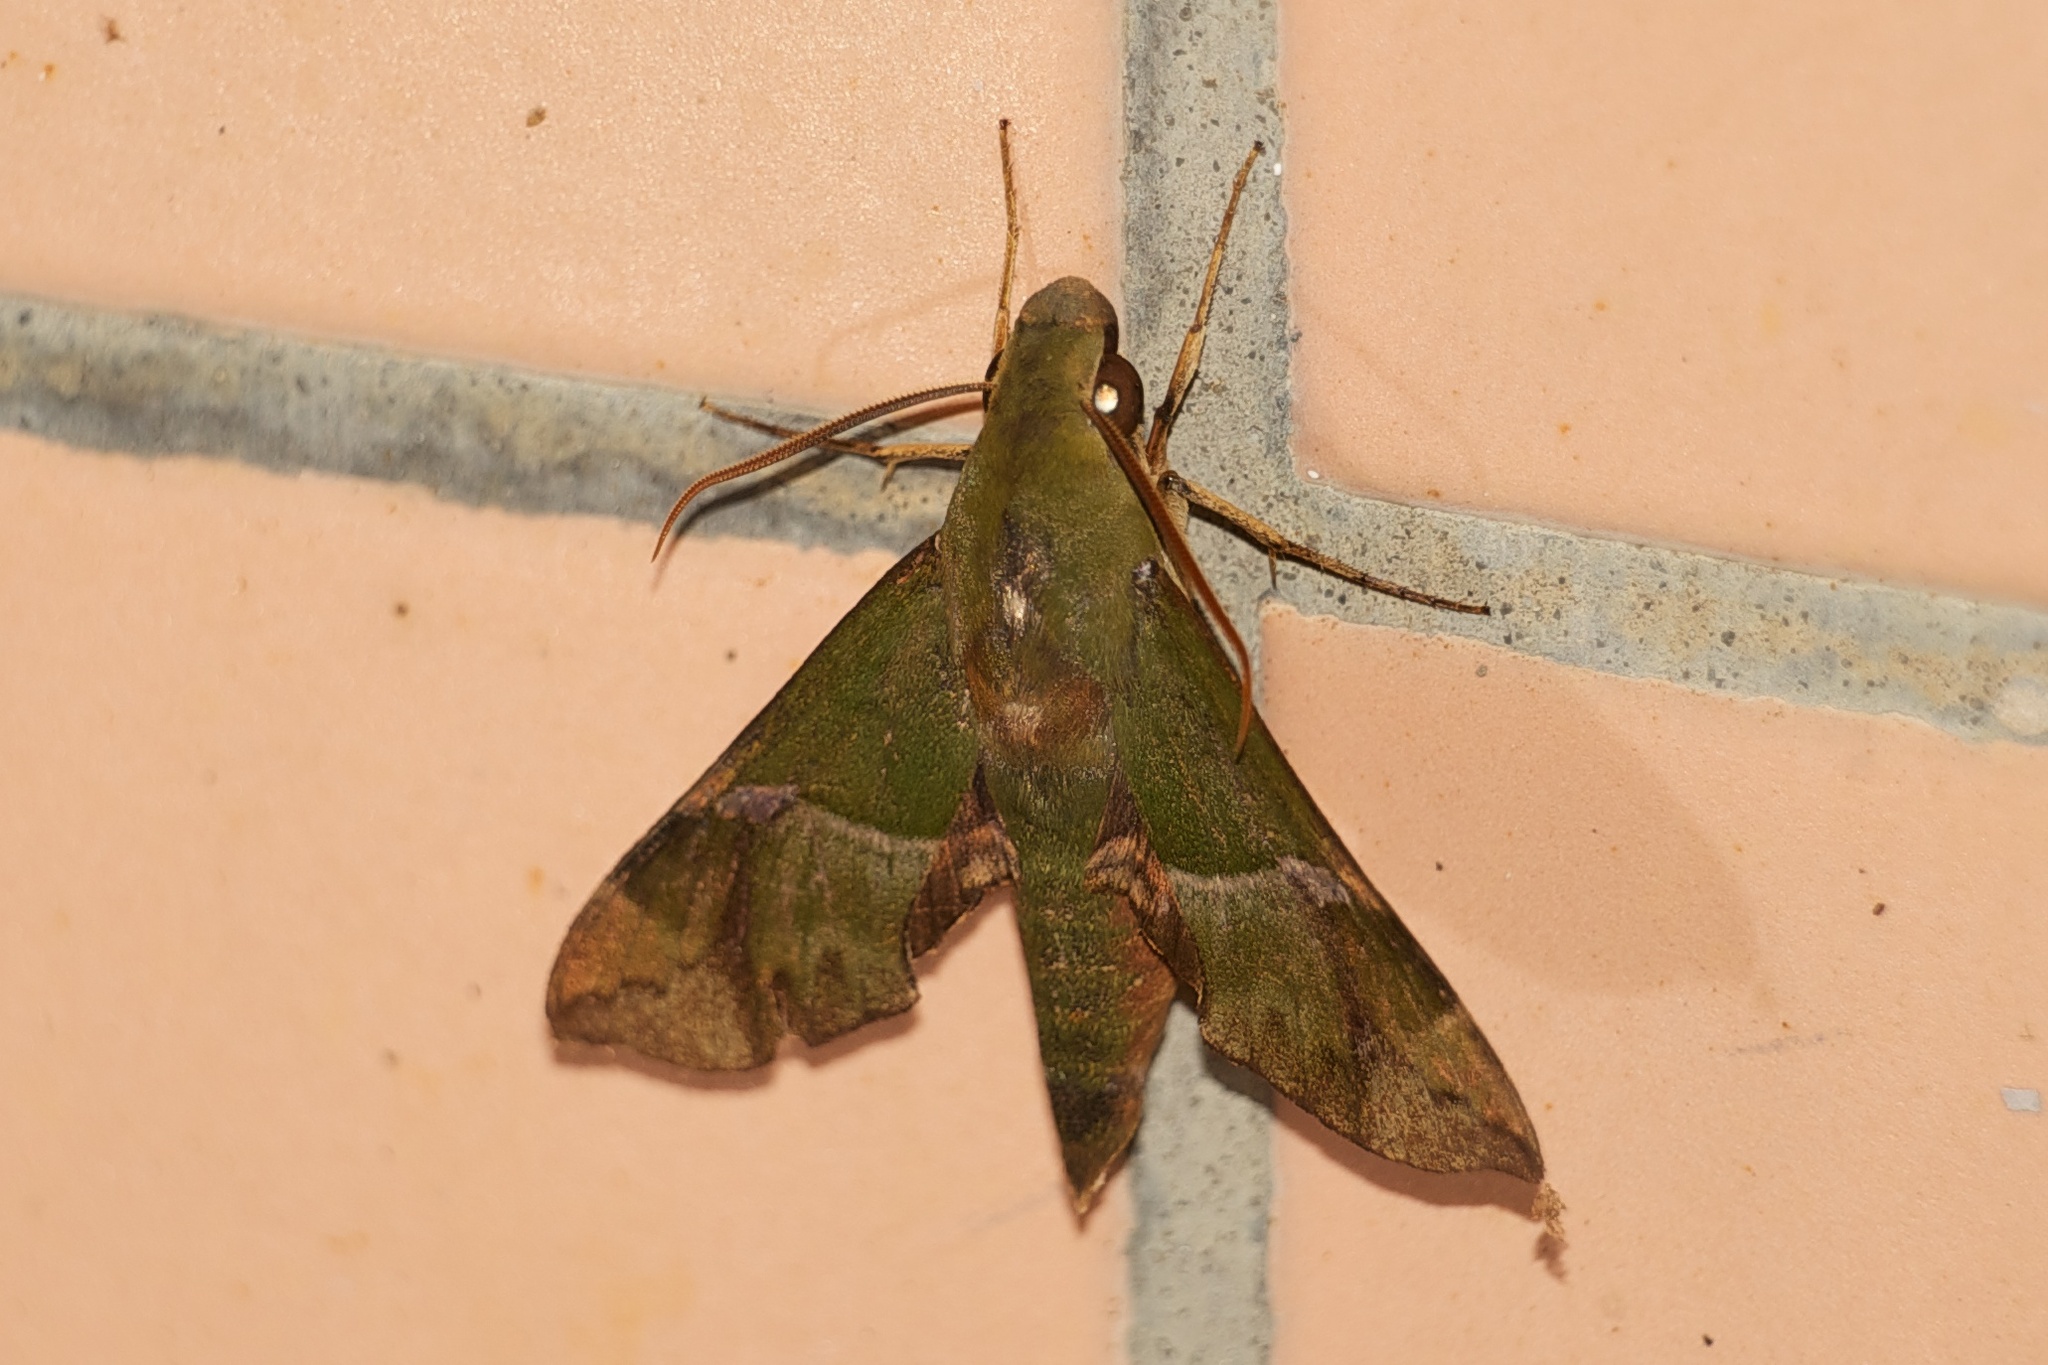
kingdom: Animalia
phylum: Arthropoda
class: Insecta
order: Lepidoptera
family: Sphingidae
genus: Angonyx
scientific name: Angonyx testacea
